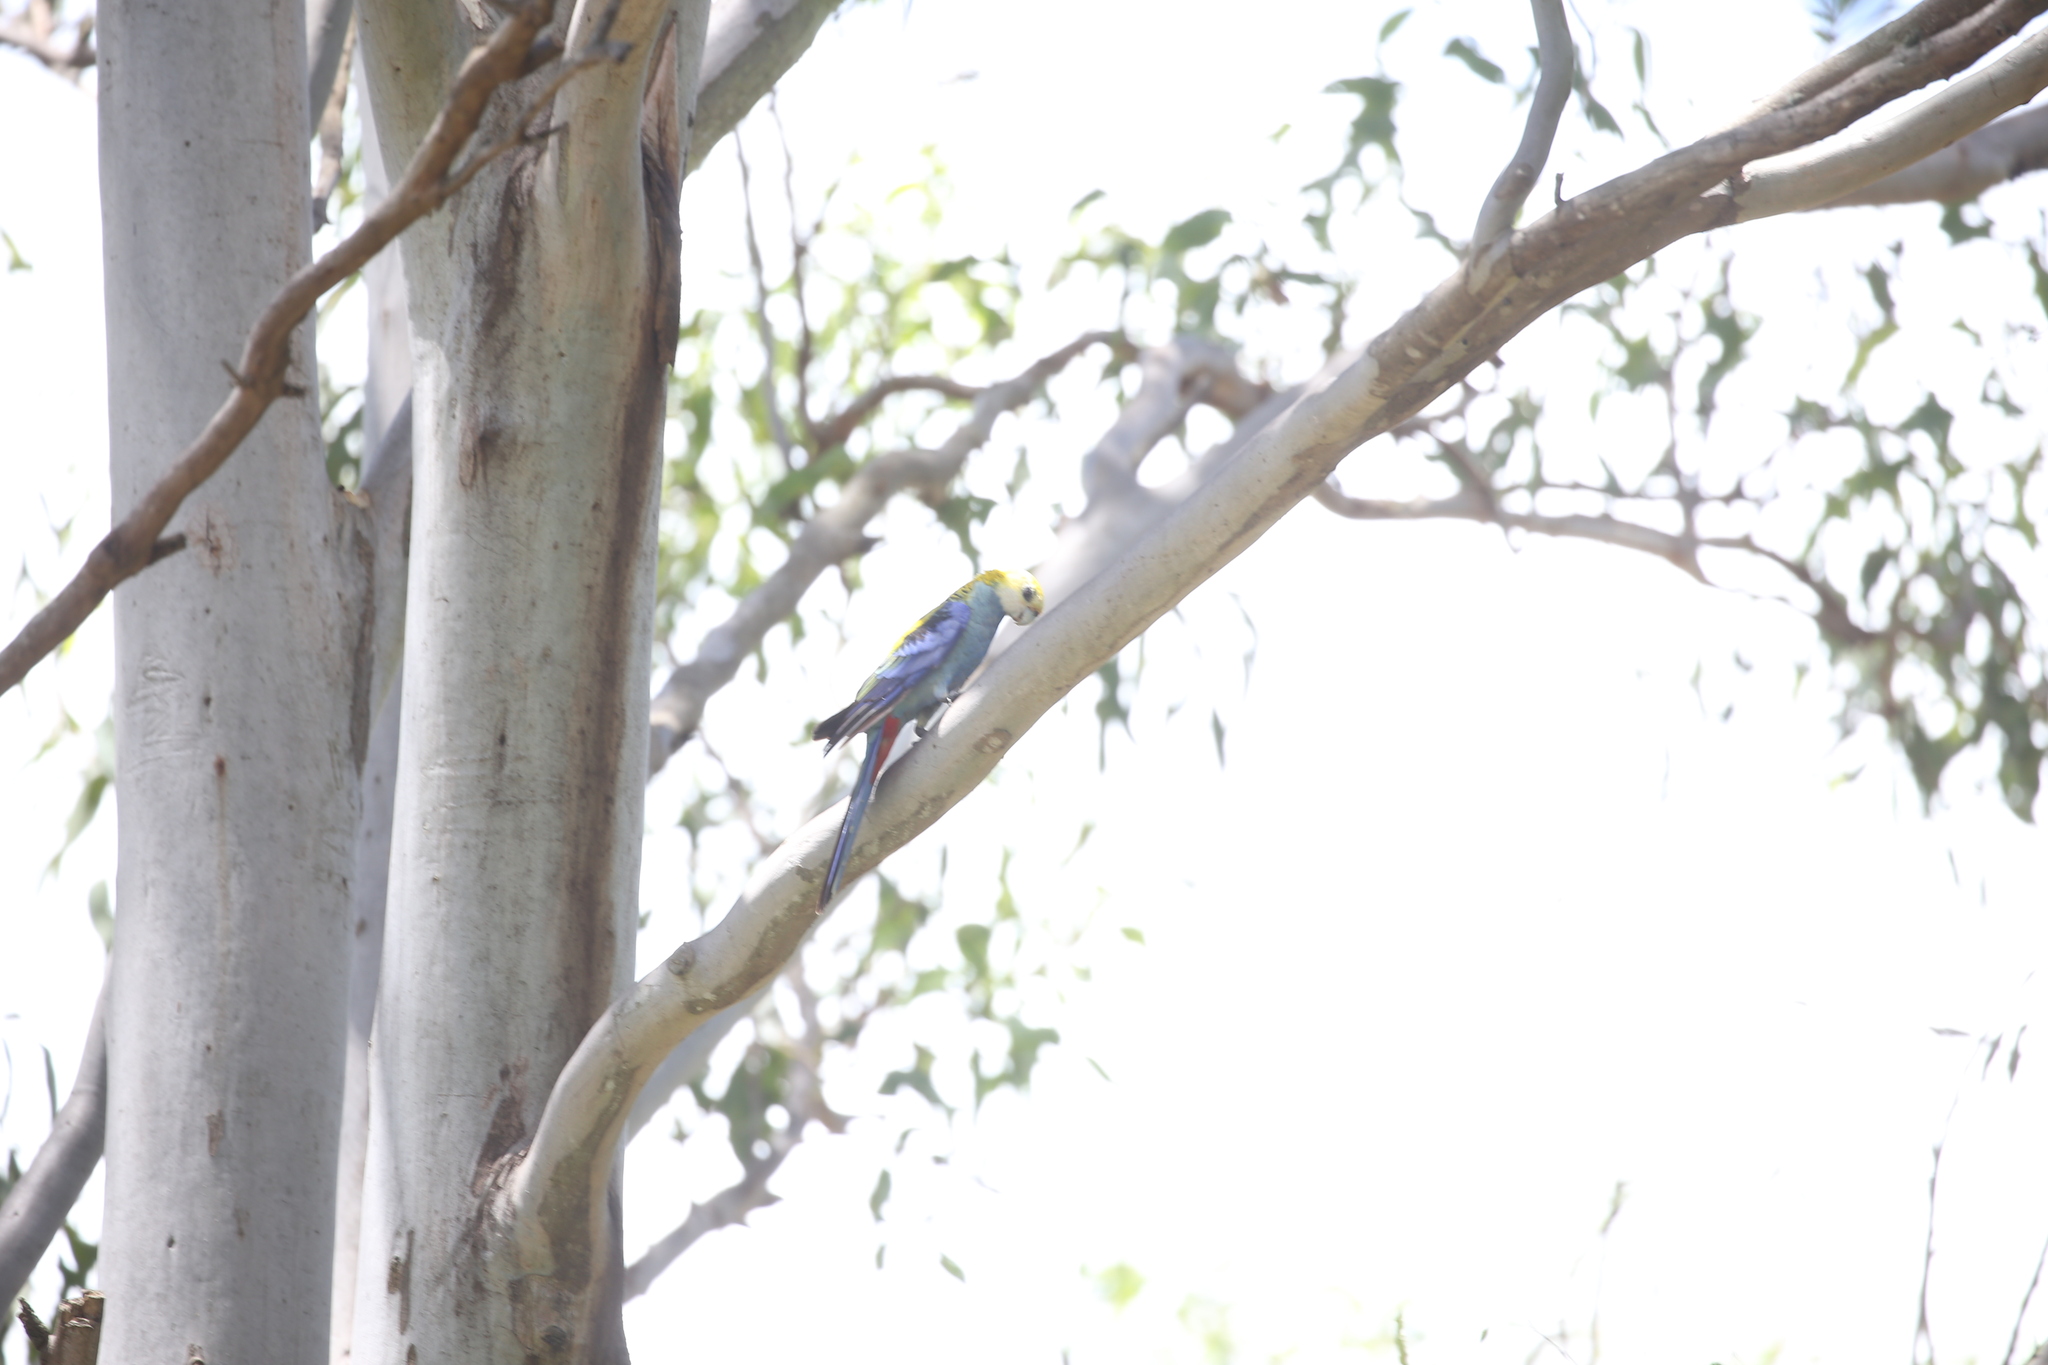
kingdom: Animalia
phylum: Chordata
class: Aves
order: Psittaciformes
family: Psittacidae
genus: Platycercus
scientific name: Platycercus adscitus
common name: Pale-headed rosella
